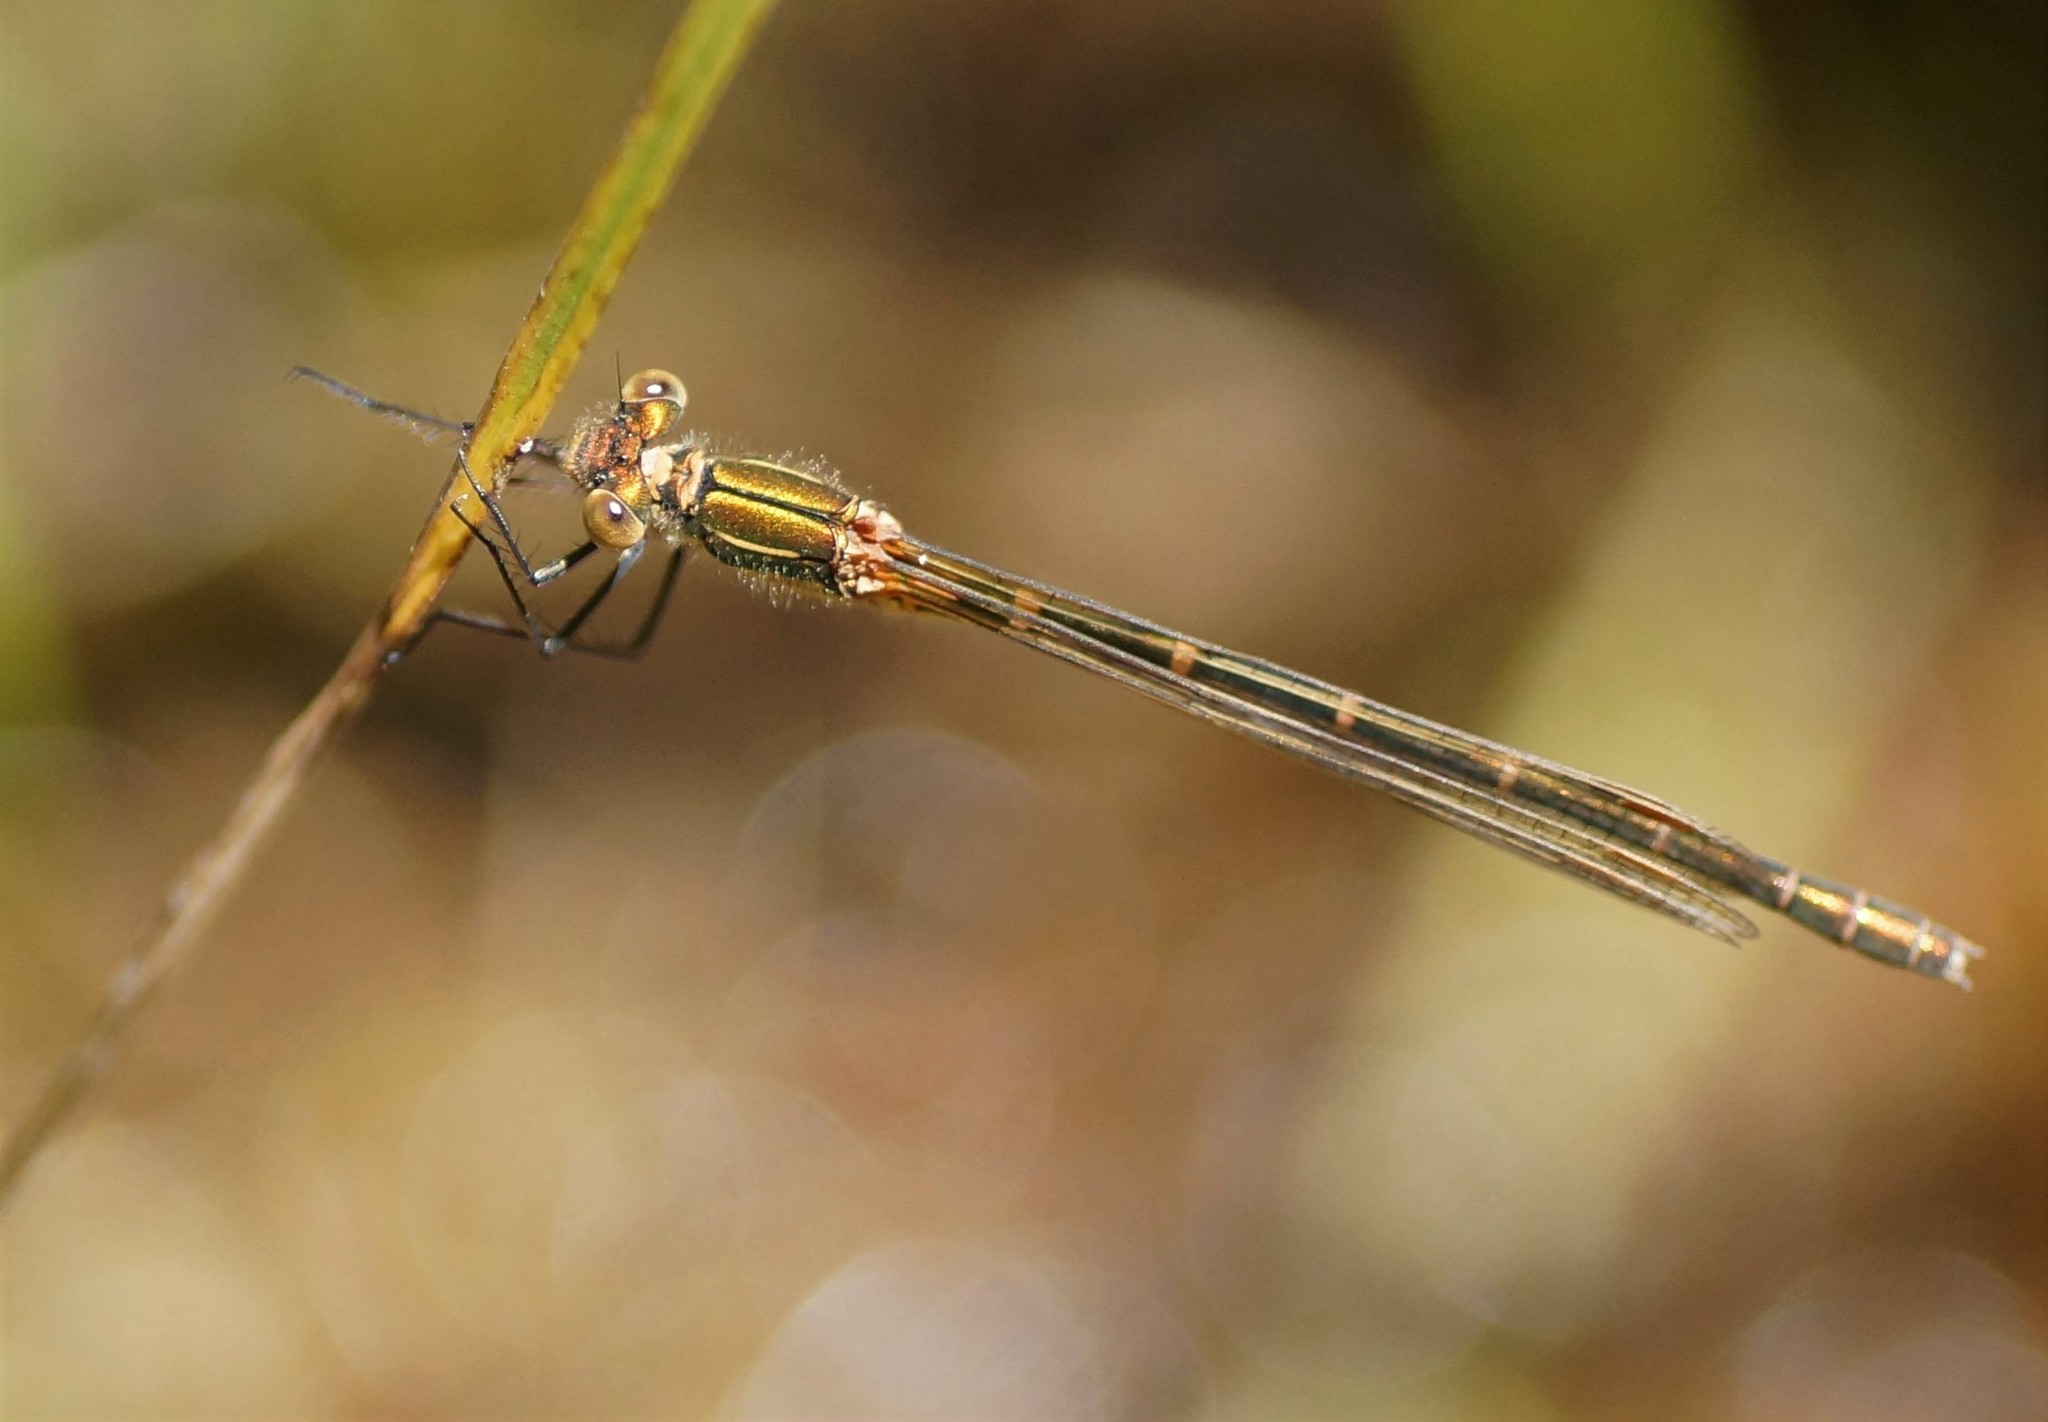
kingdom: Animalia
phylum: Arthropoda
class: Insecta
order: Odonata
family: Lestidae
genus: Austrolestes
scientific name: Austrolestes cingulatus
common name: Metallic ringtail
